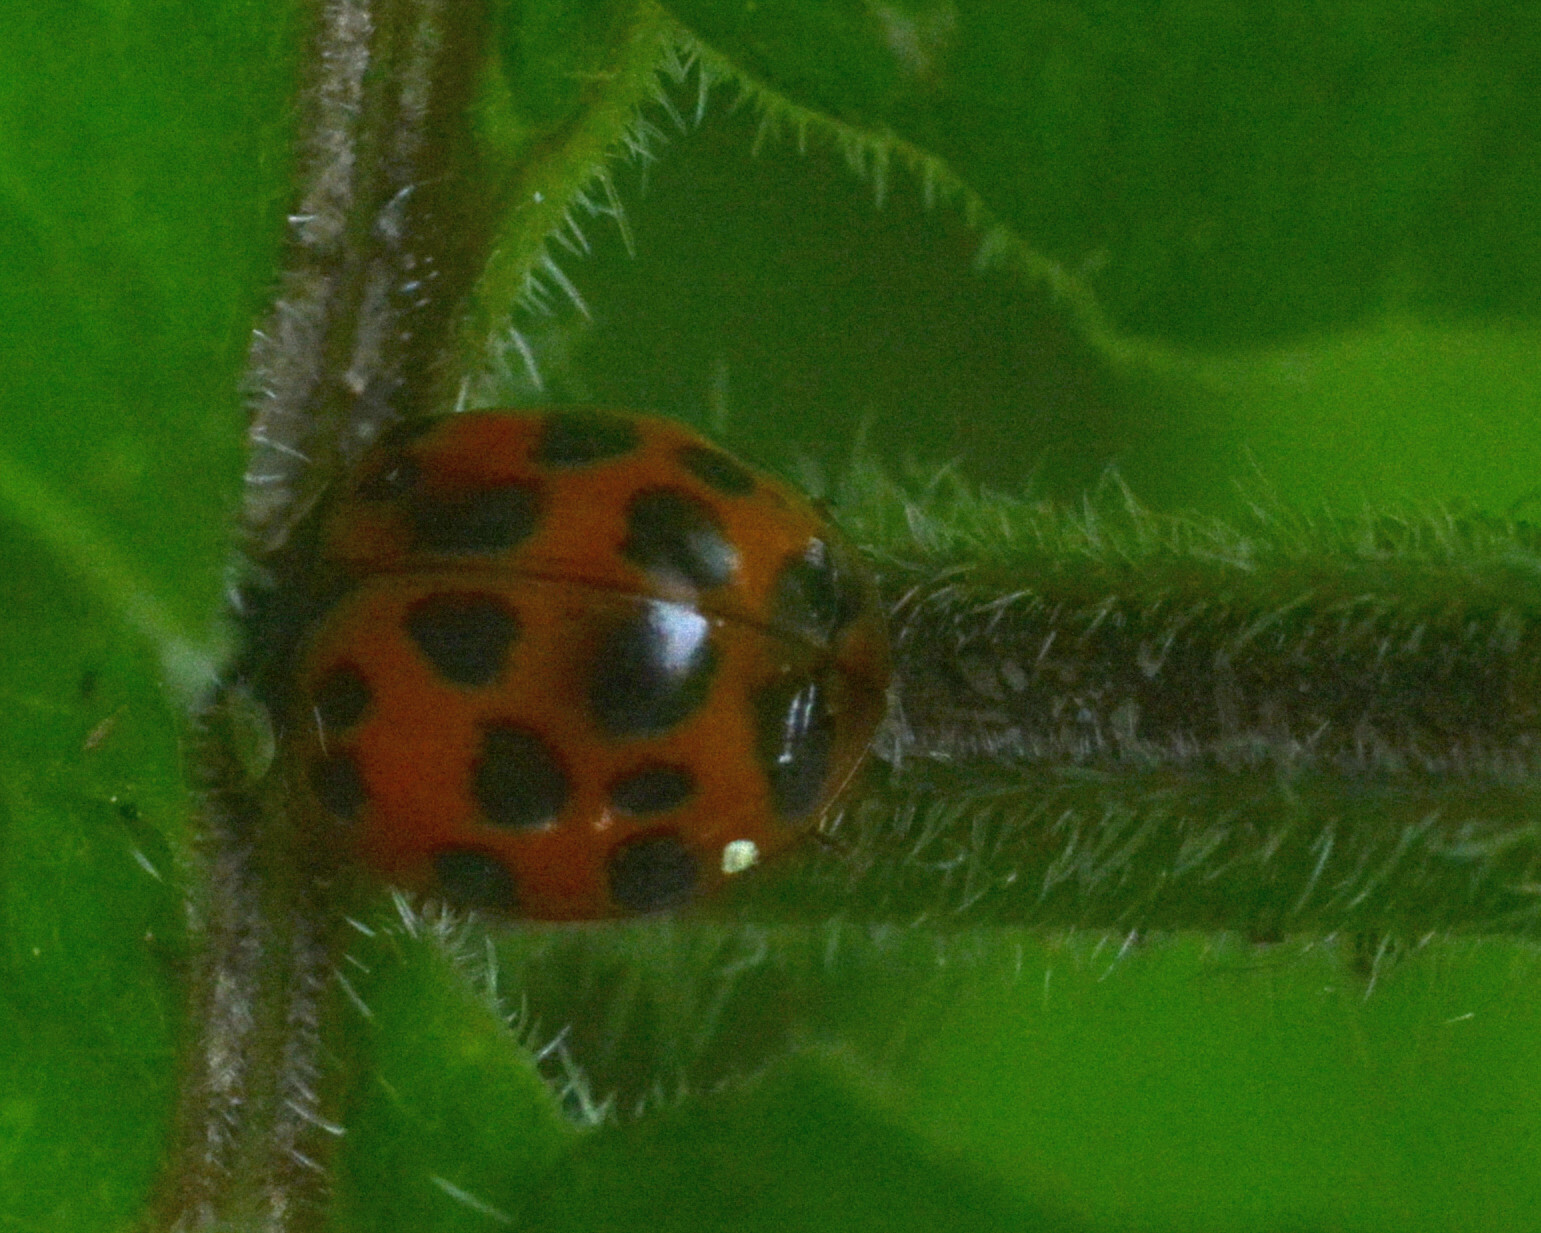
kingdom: Animalia
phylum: Arthropoda
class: Insecta
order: Coleoptera
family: Coccinellidae
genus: Harmonia
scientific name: Harmonia axyridis
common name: Harlequin ladybird
